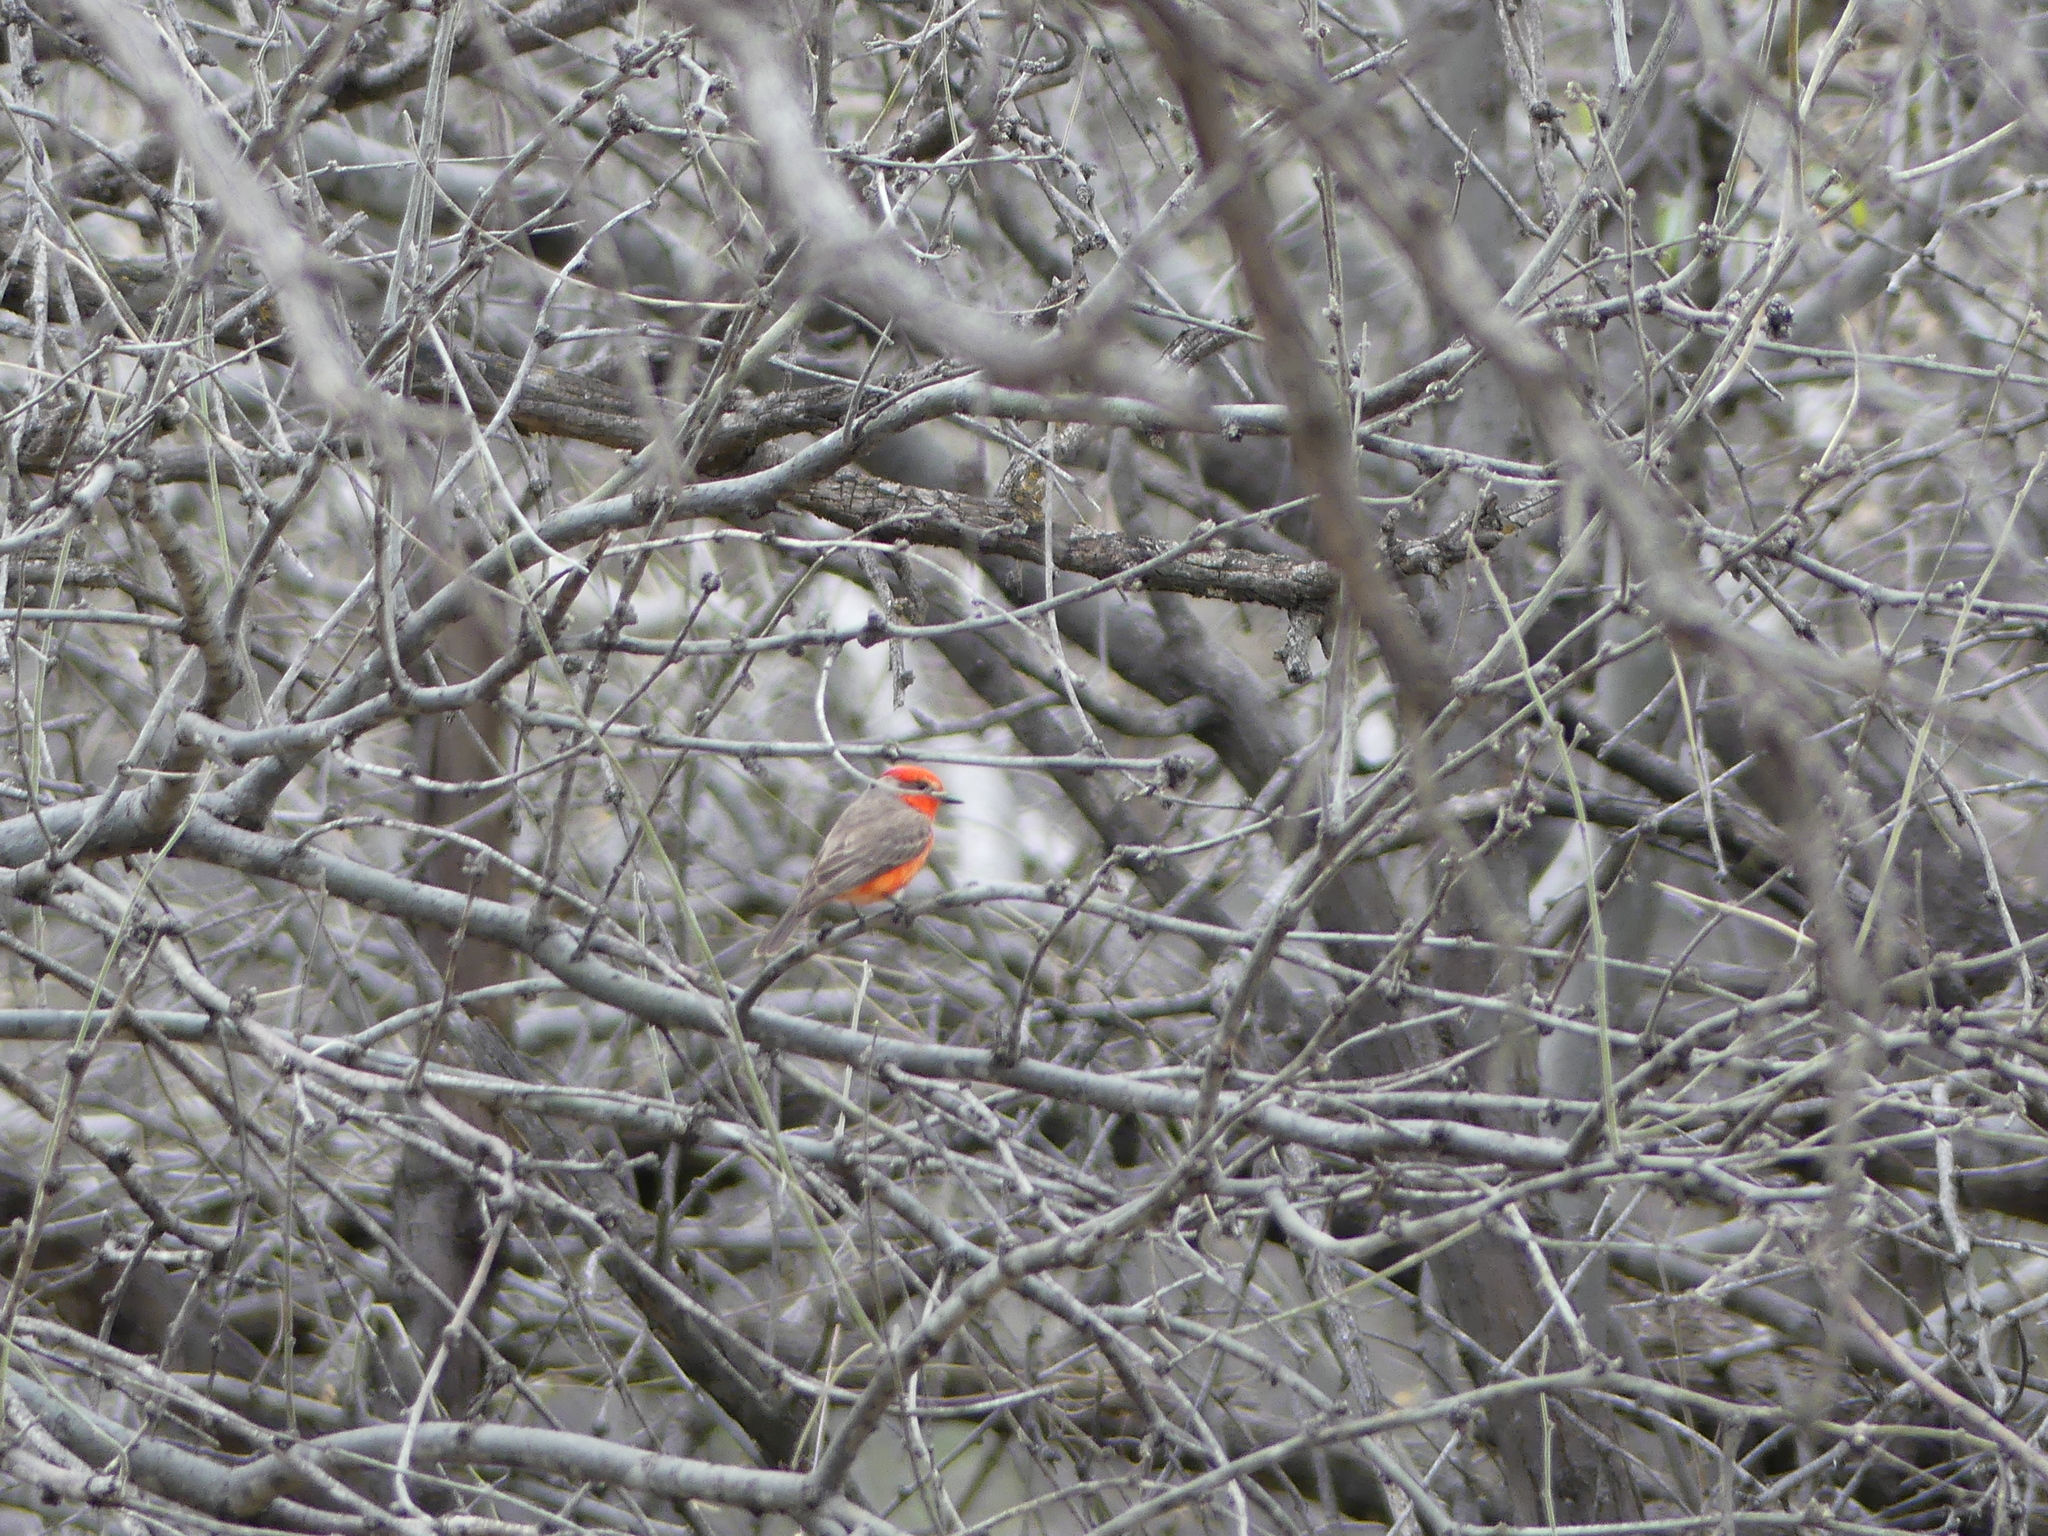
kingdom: Animalia
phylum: Chordata
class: Aves
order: Passeriformes
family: Tyrannidae
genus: Pyrocephalus
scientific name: Pyrocephalus rubinus
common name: Vermilion flycatcher
